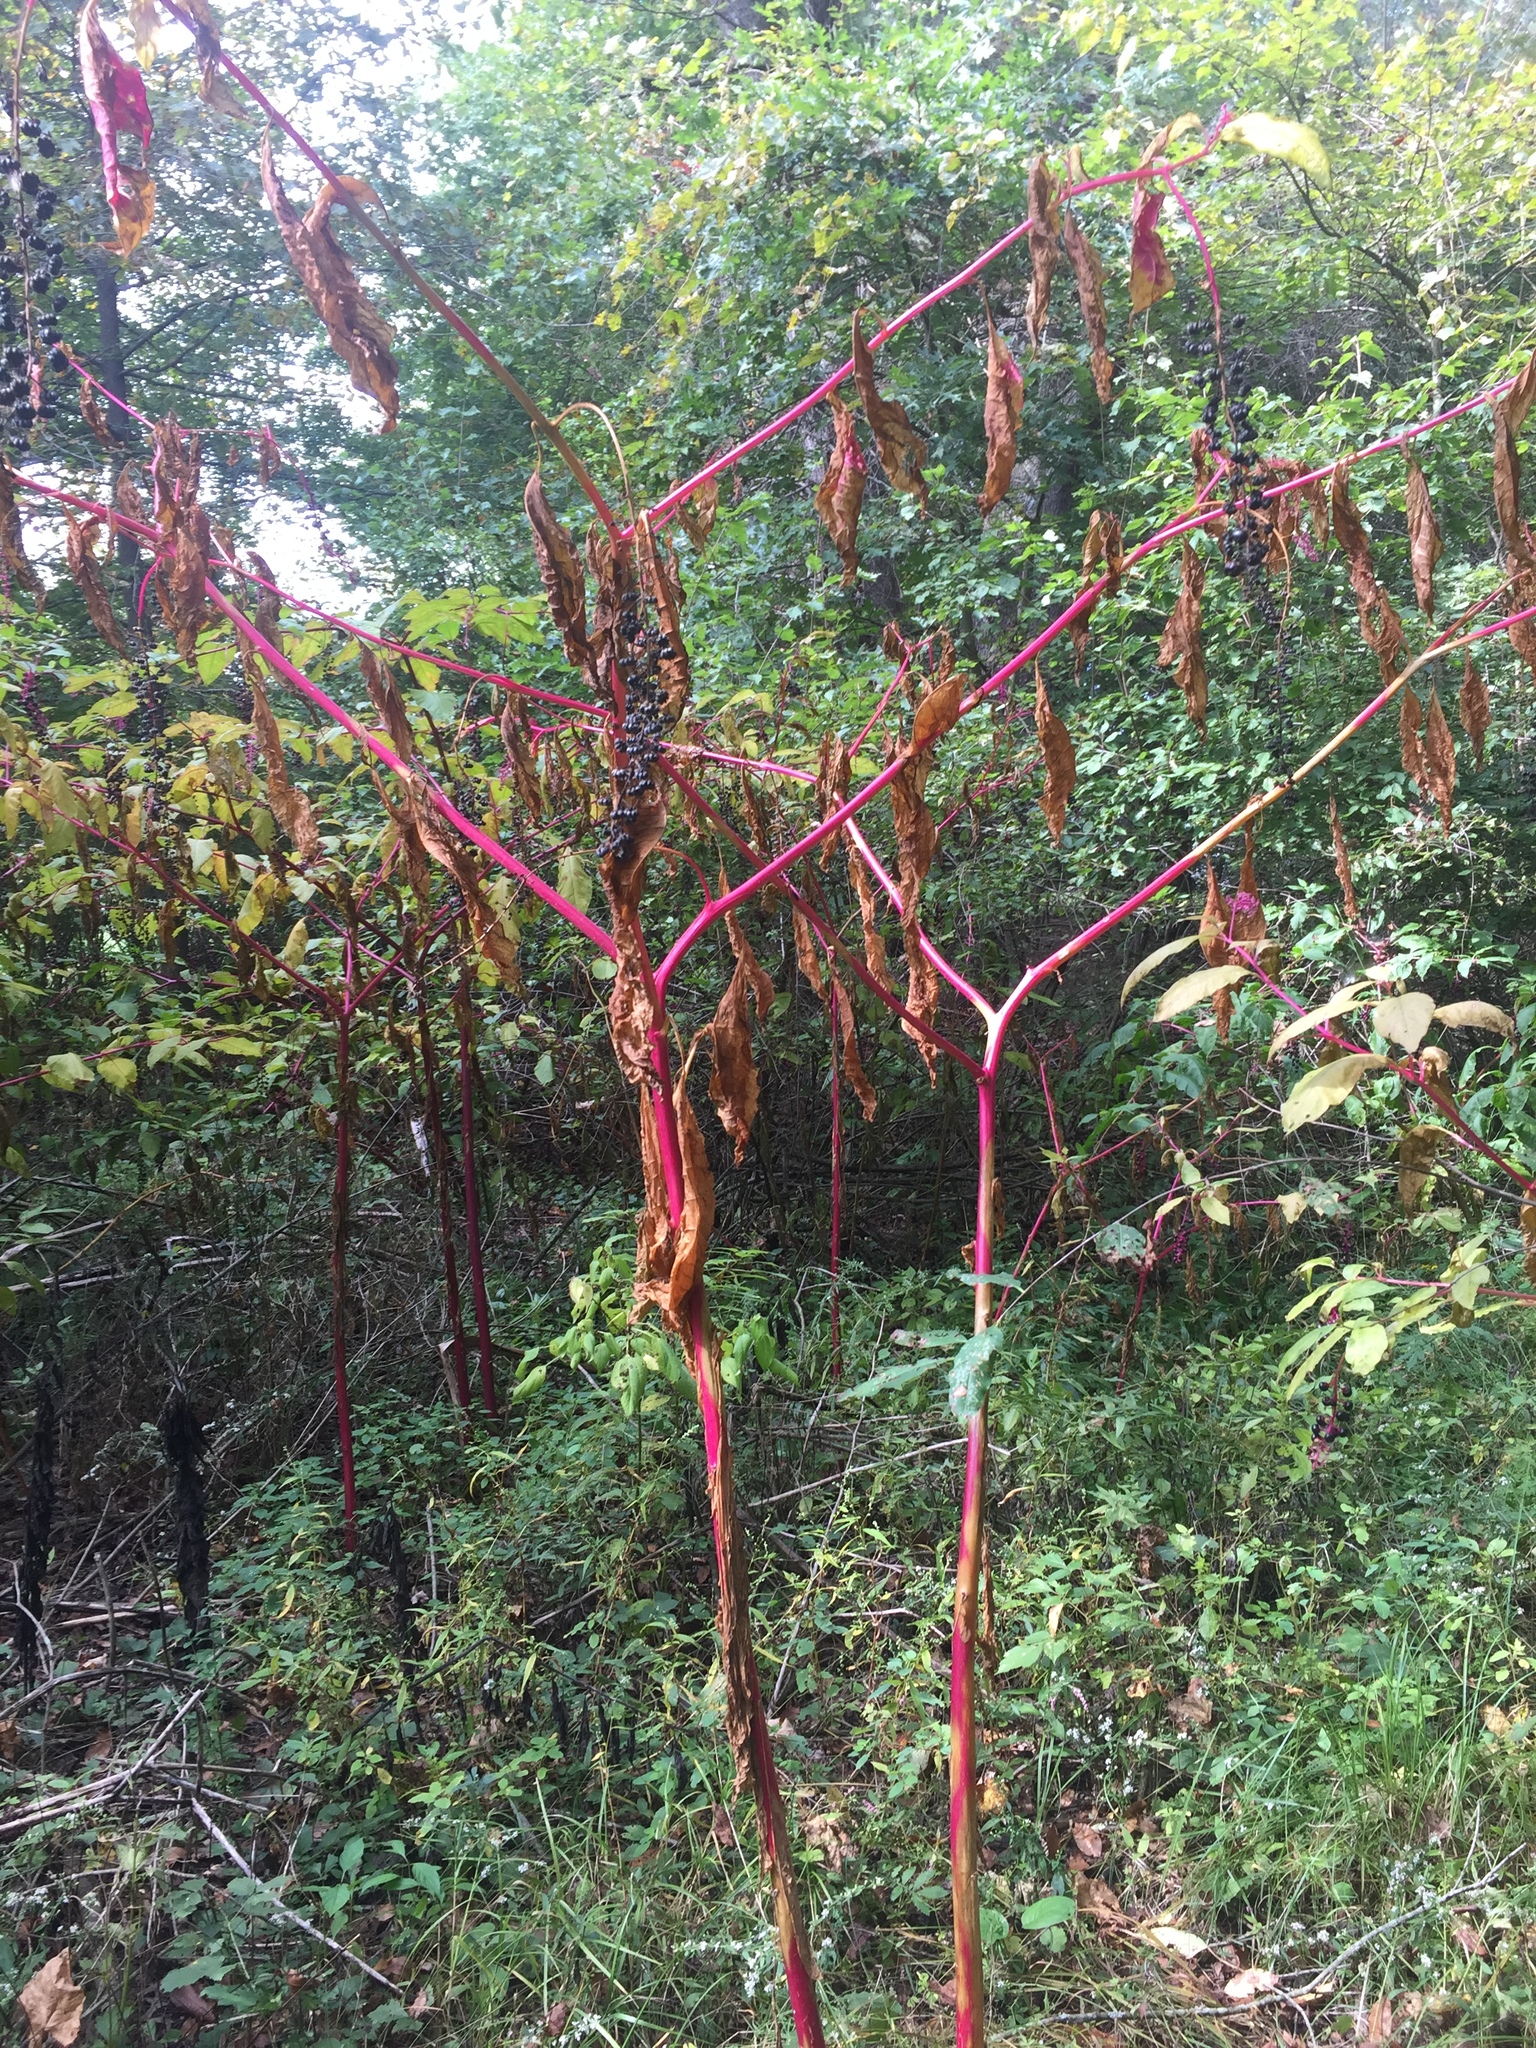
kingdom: Plantae
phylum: Tracheophyta
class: Magnoliopsida
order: Caryophyllales
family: Phytolaccaceae
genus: Phytolacca
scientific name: Phytolacca americana
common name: American pokeweed
